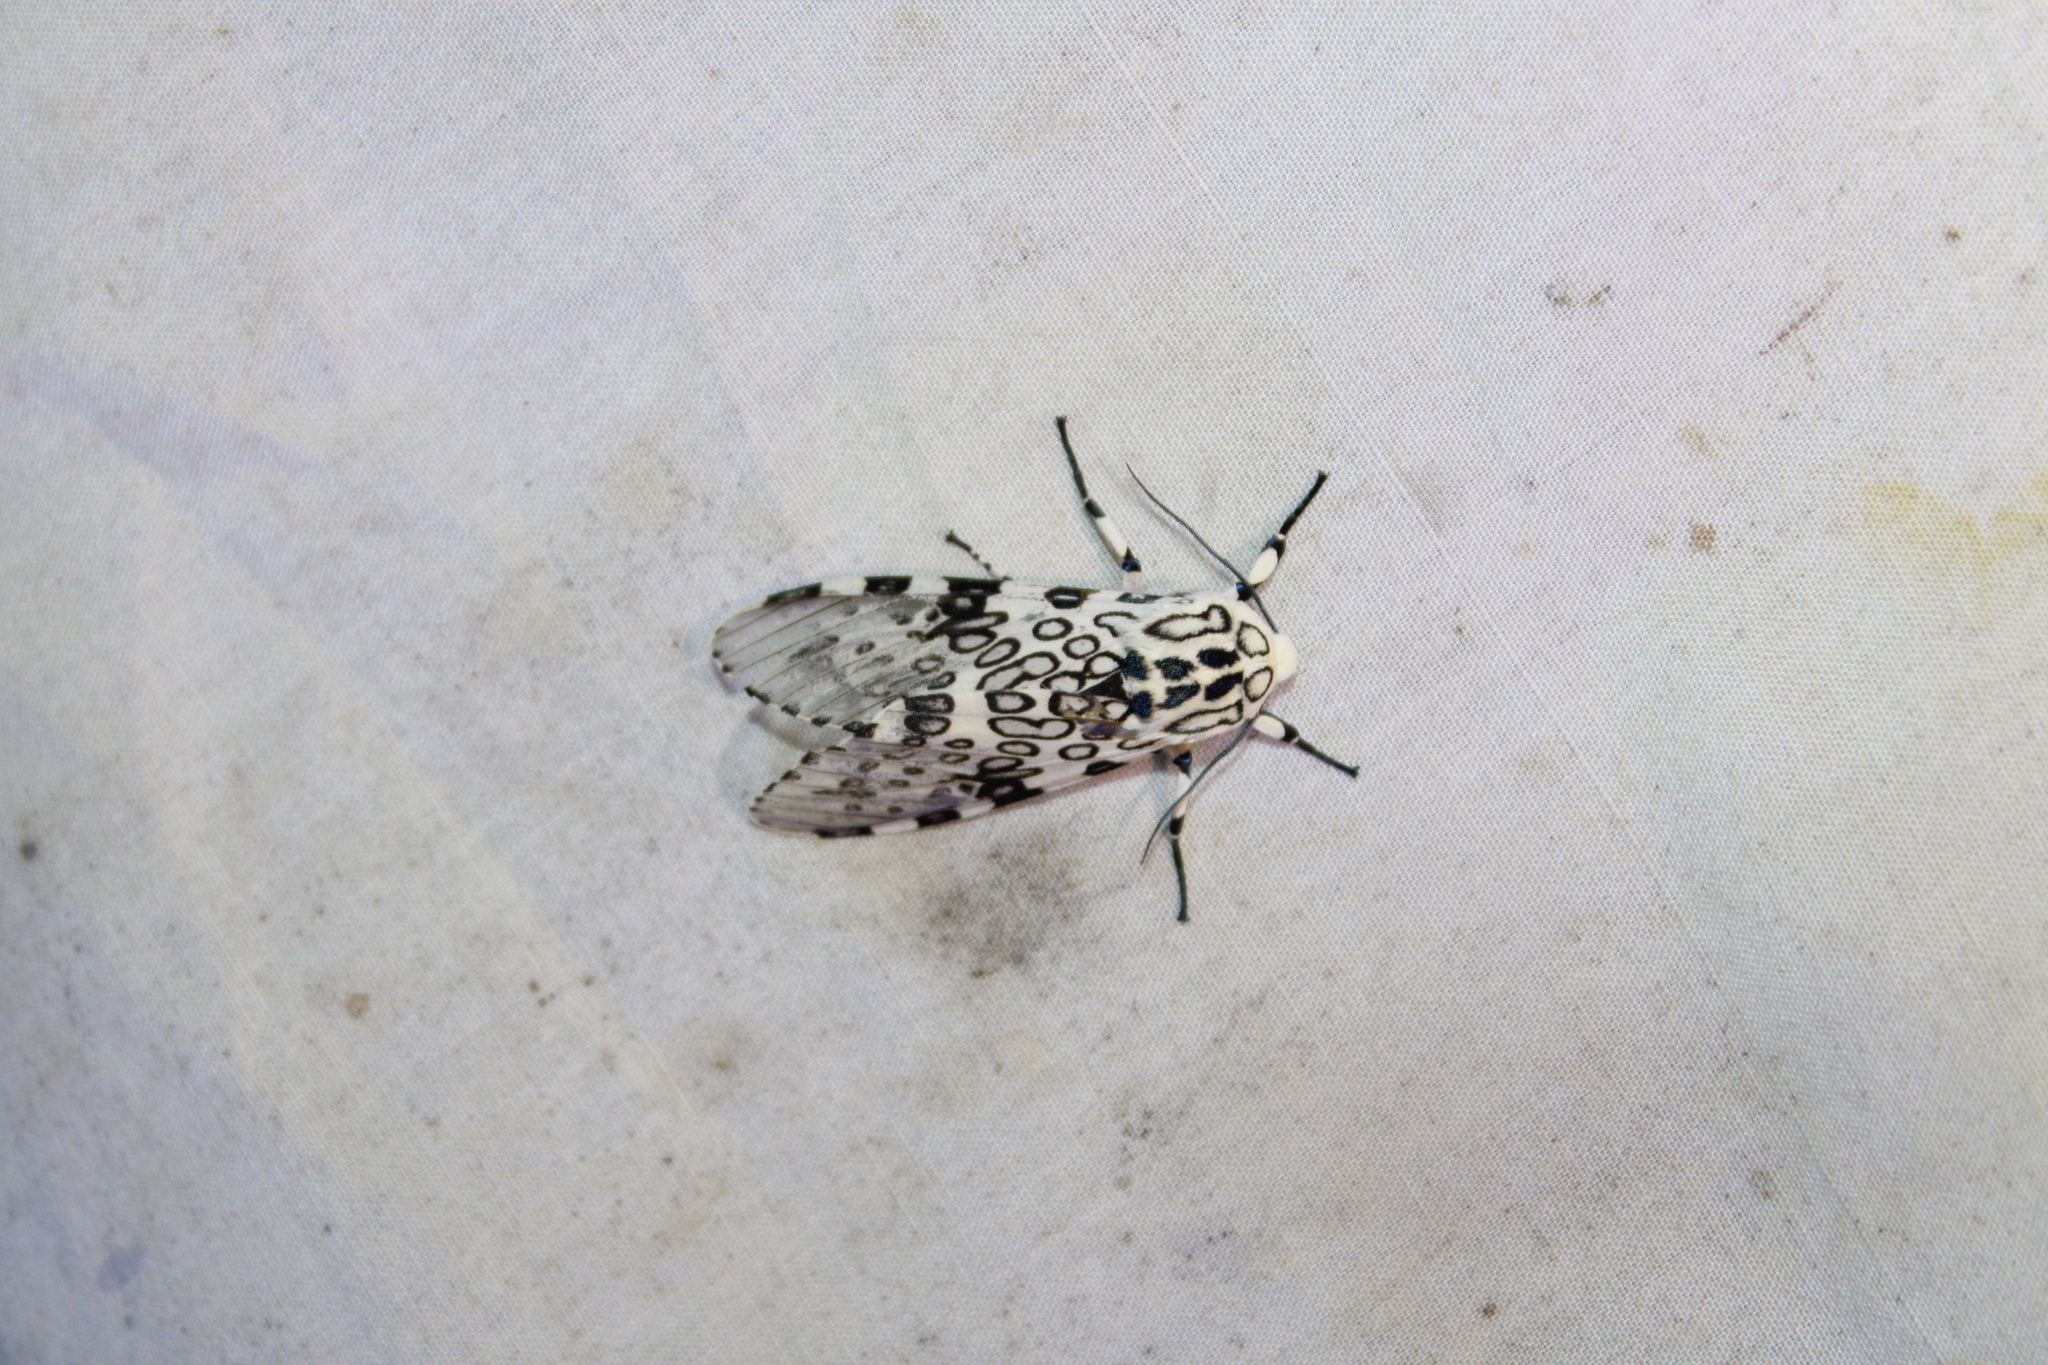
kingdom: Animalia
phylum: Arthropoda
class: Insecta
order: Lepidoptera
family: Erebidae
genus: Hypercompe
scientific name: Hypercompe scribonia
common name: Giant leopard moth
